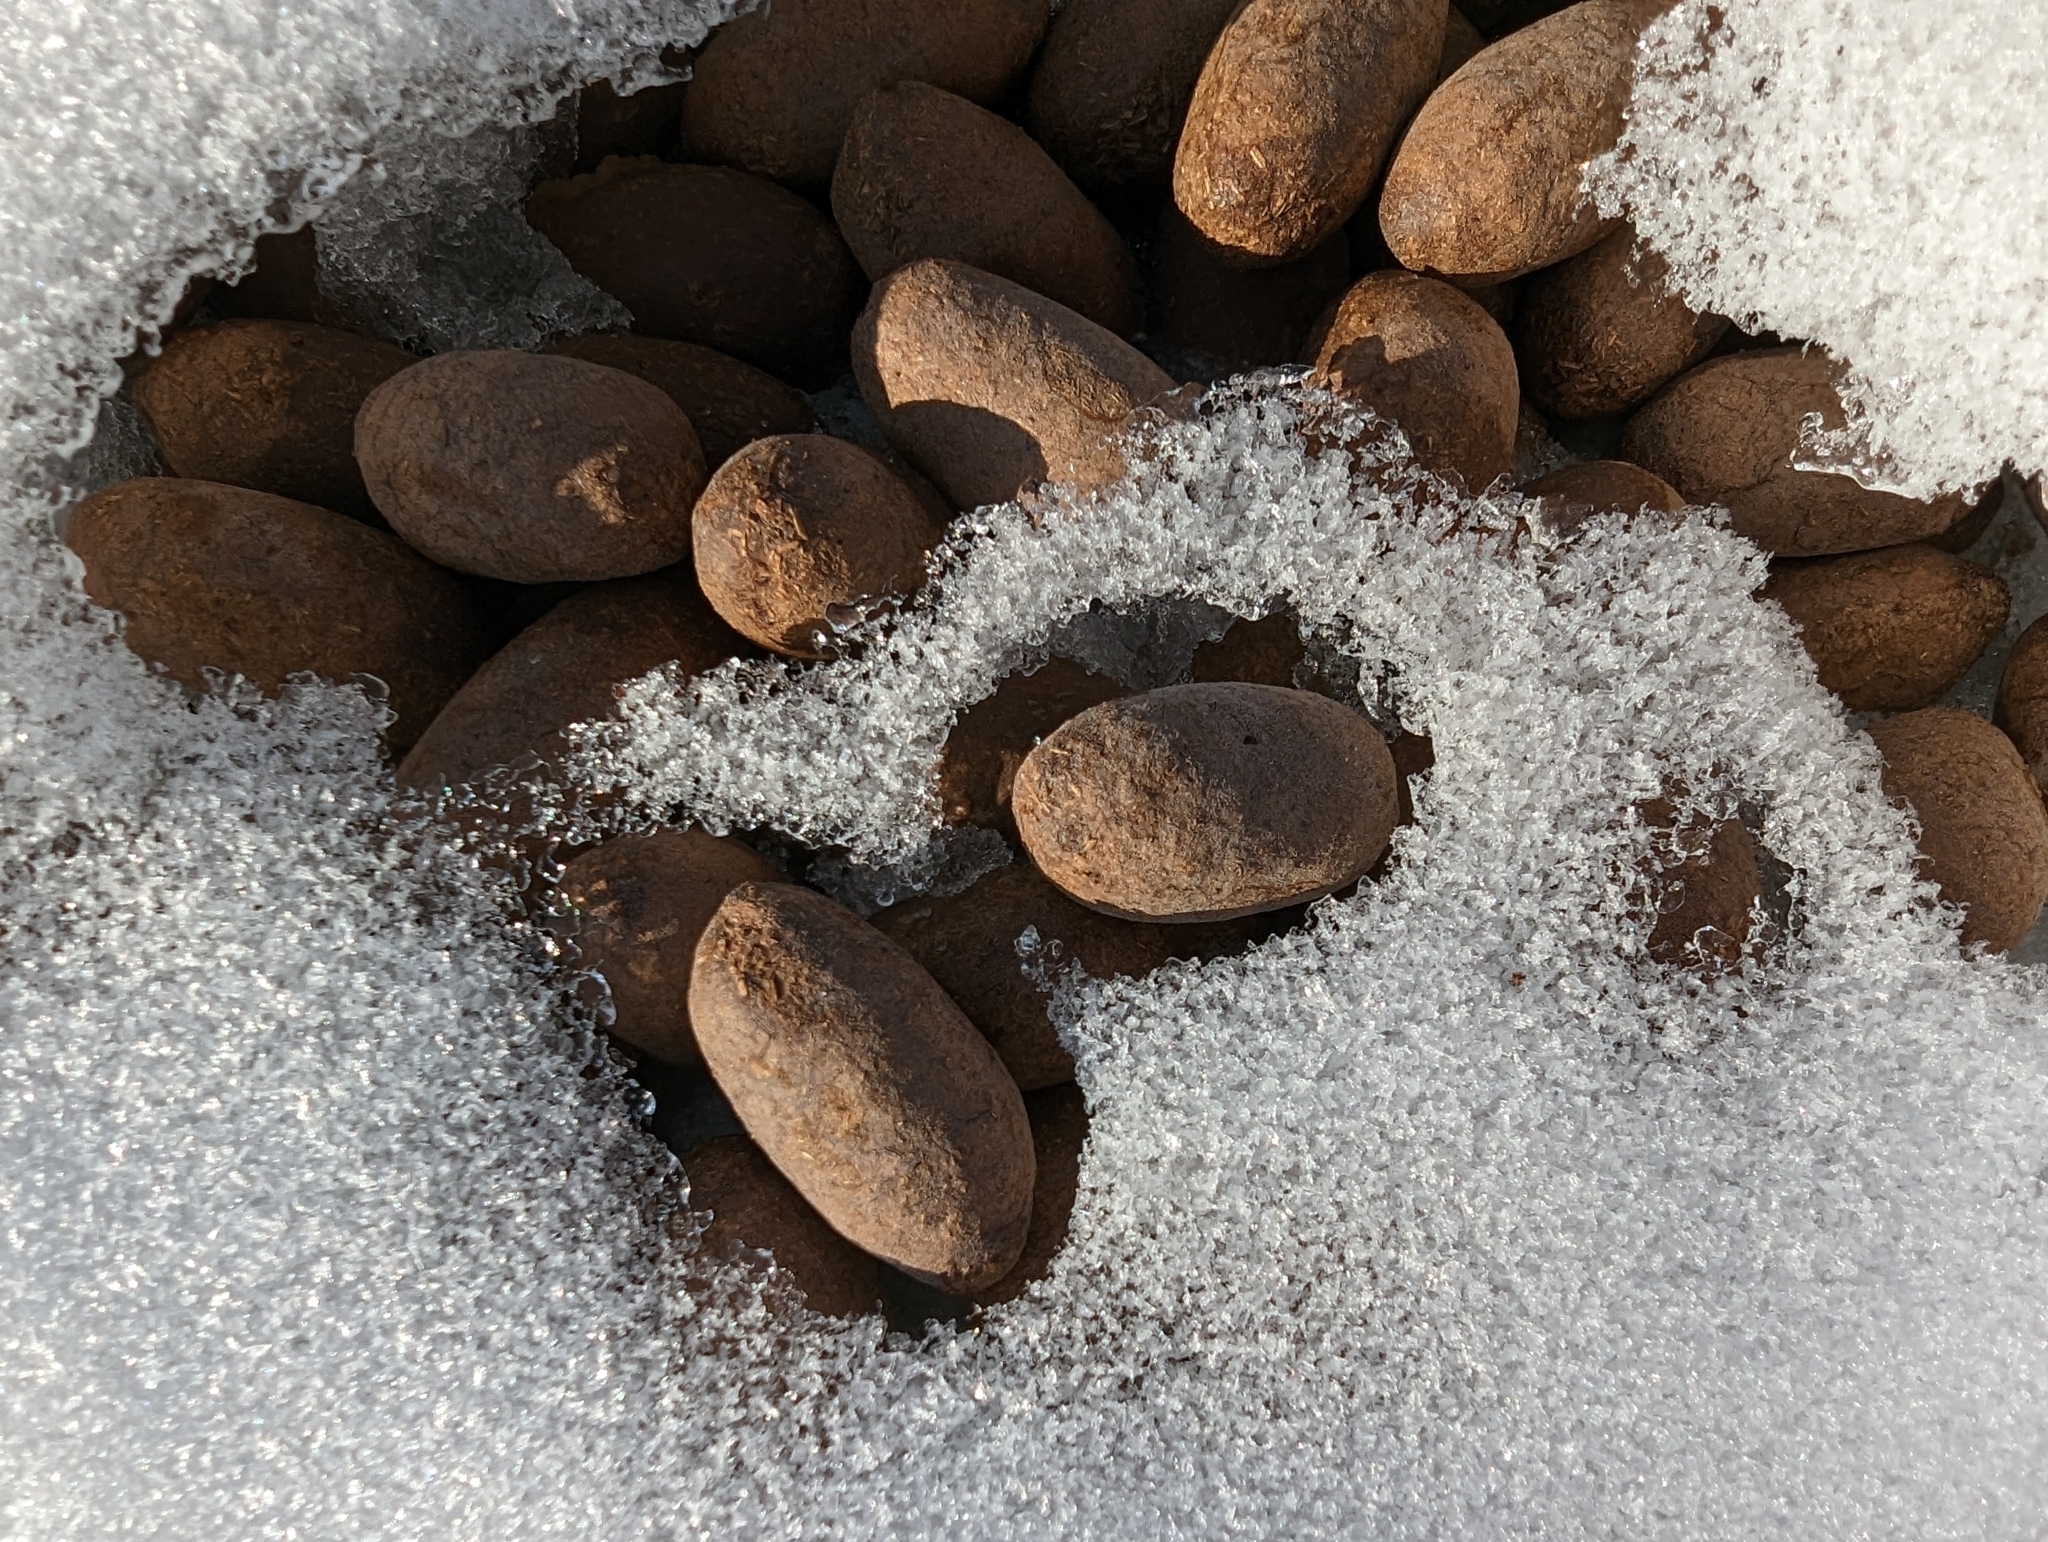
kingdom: Animalia
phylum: Chordata
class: Mammalia
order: Artiodactyla
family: Cervidae
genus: Alces
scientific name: Alces alces
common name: Moose
